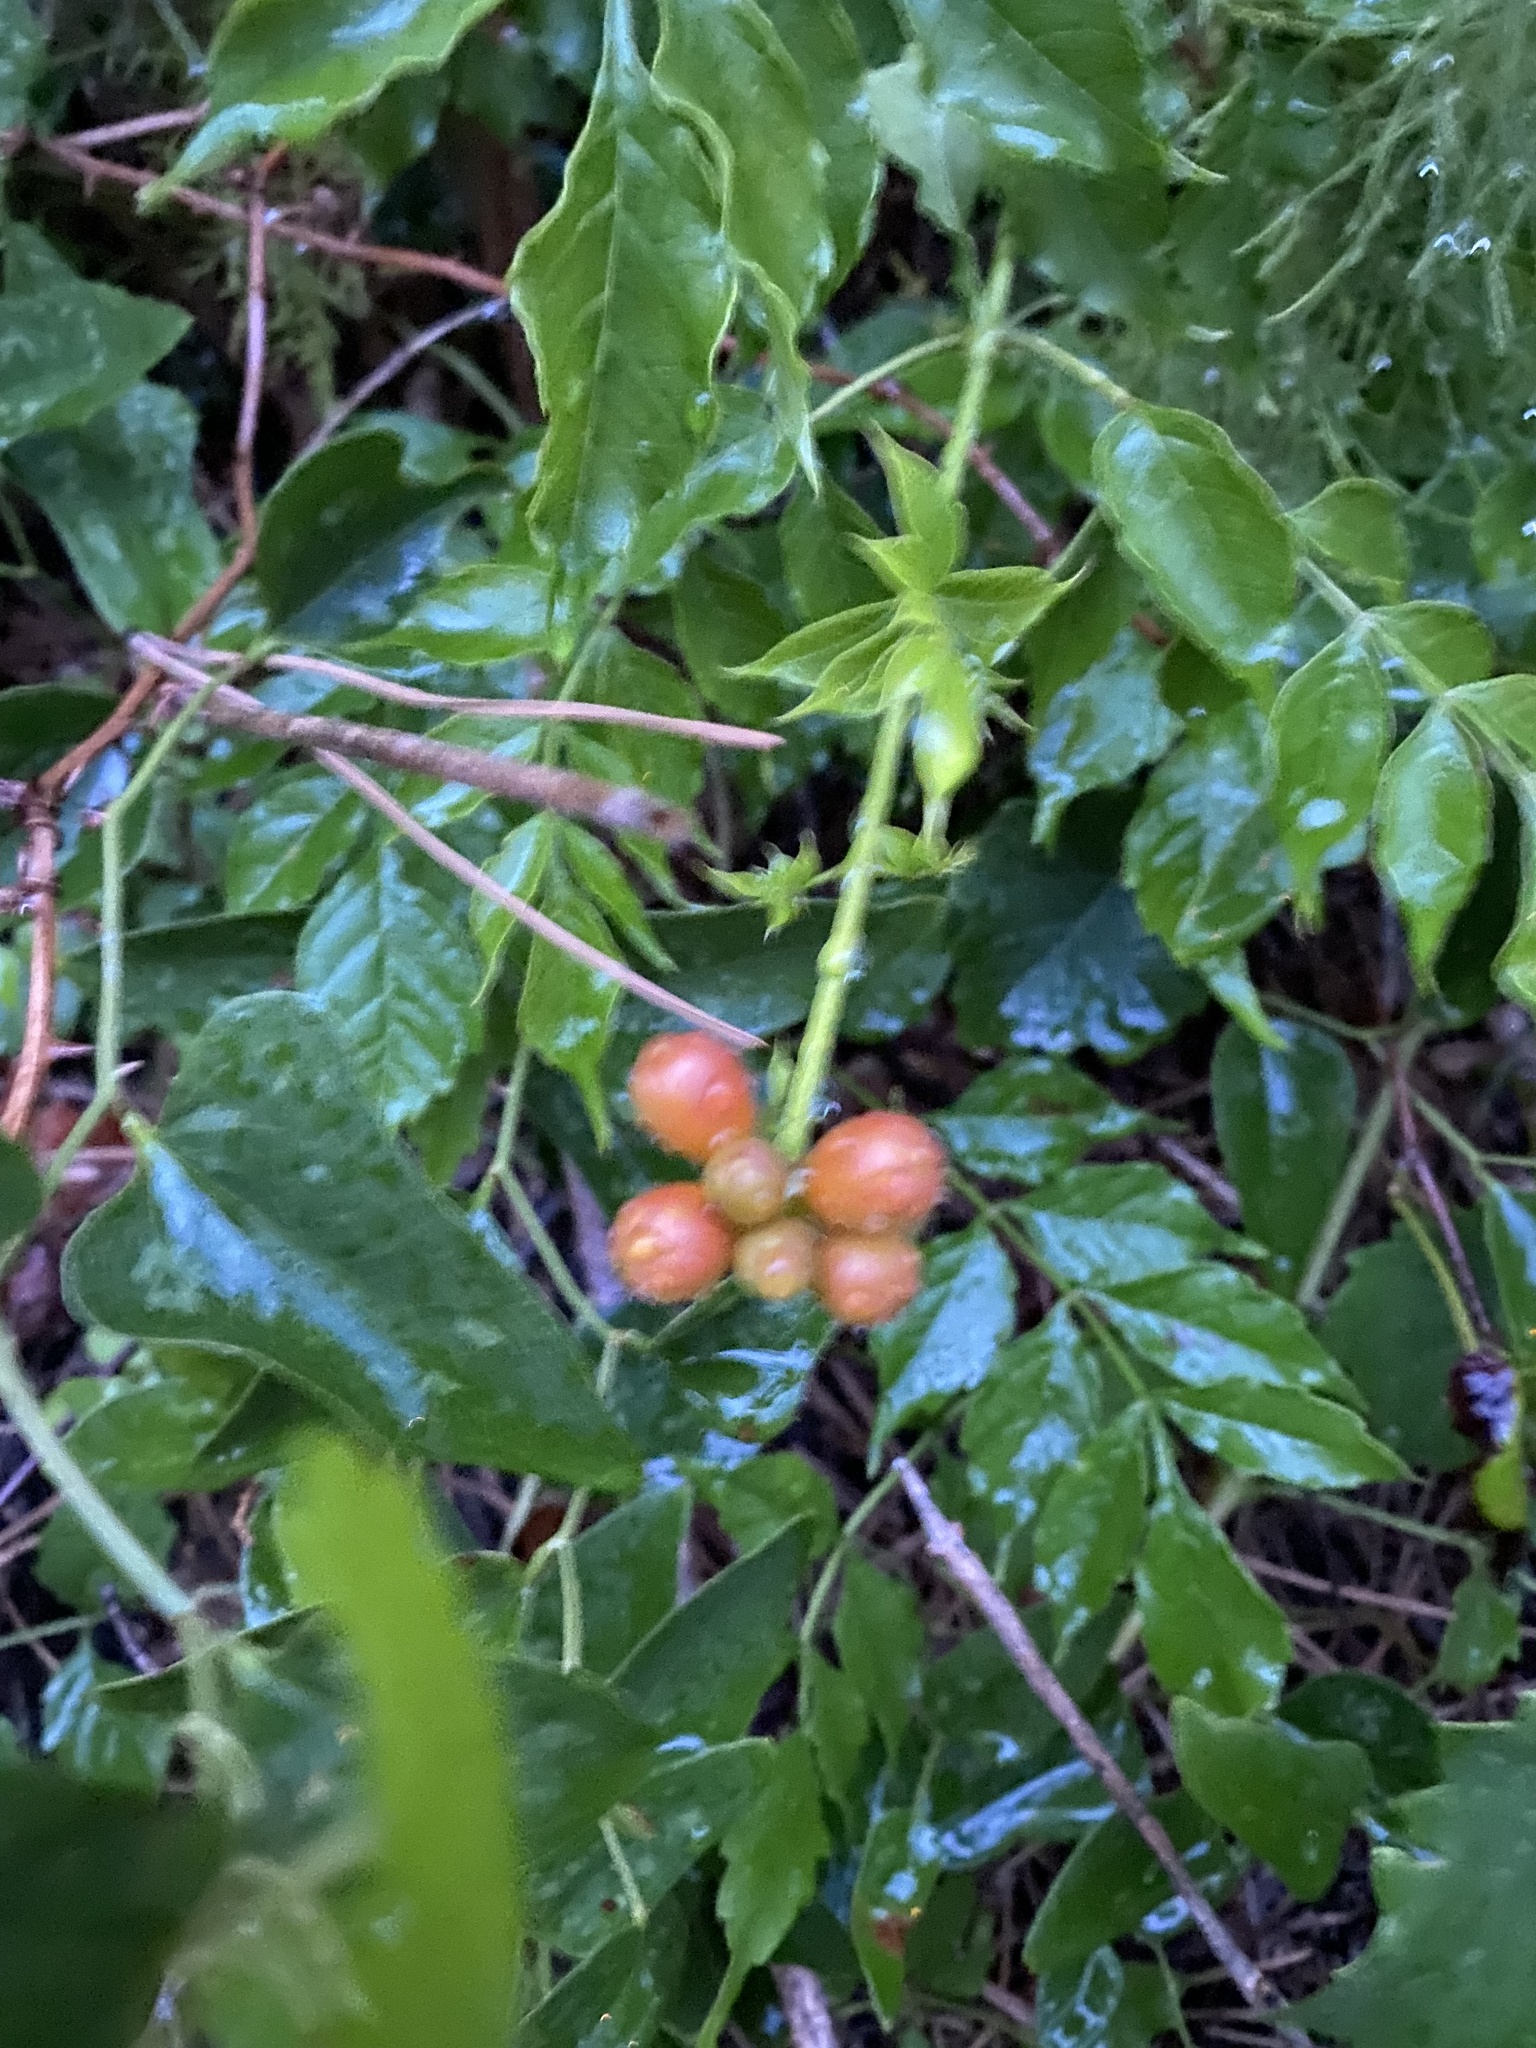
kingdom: Plantae
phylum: Tracheophyta
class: Magnoliopsida
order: Lamiales
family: Bignoniaceae
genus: Campsis
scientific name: Campsis radicans
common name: Trumpet-creeper
